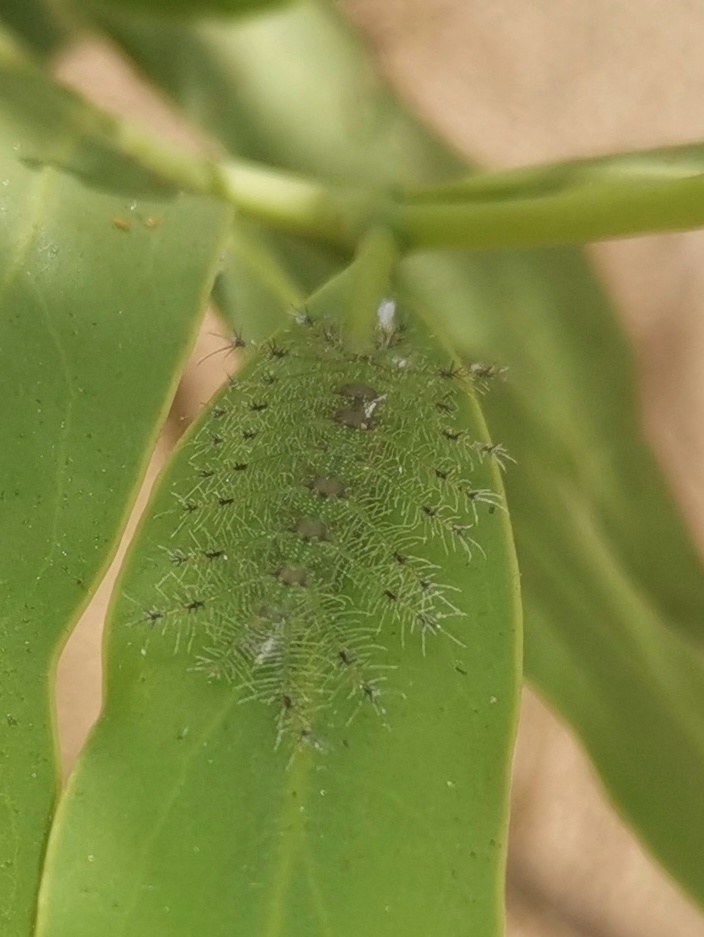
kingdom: Animalia
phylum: Arthropoda
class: Insecta
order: Lepidoptera
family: Nymphalidae
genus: Euthalia
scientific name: Euthalia lubentina
